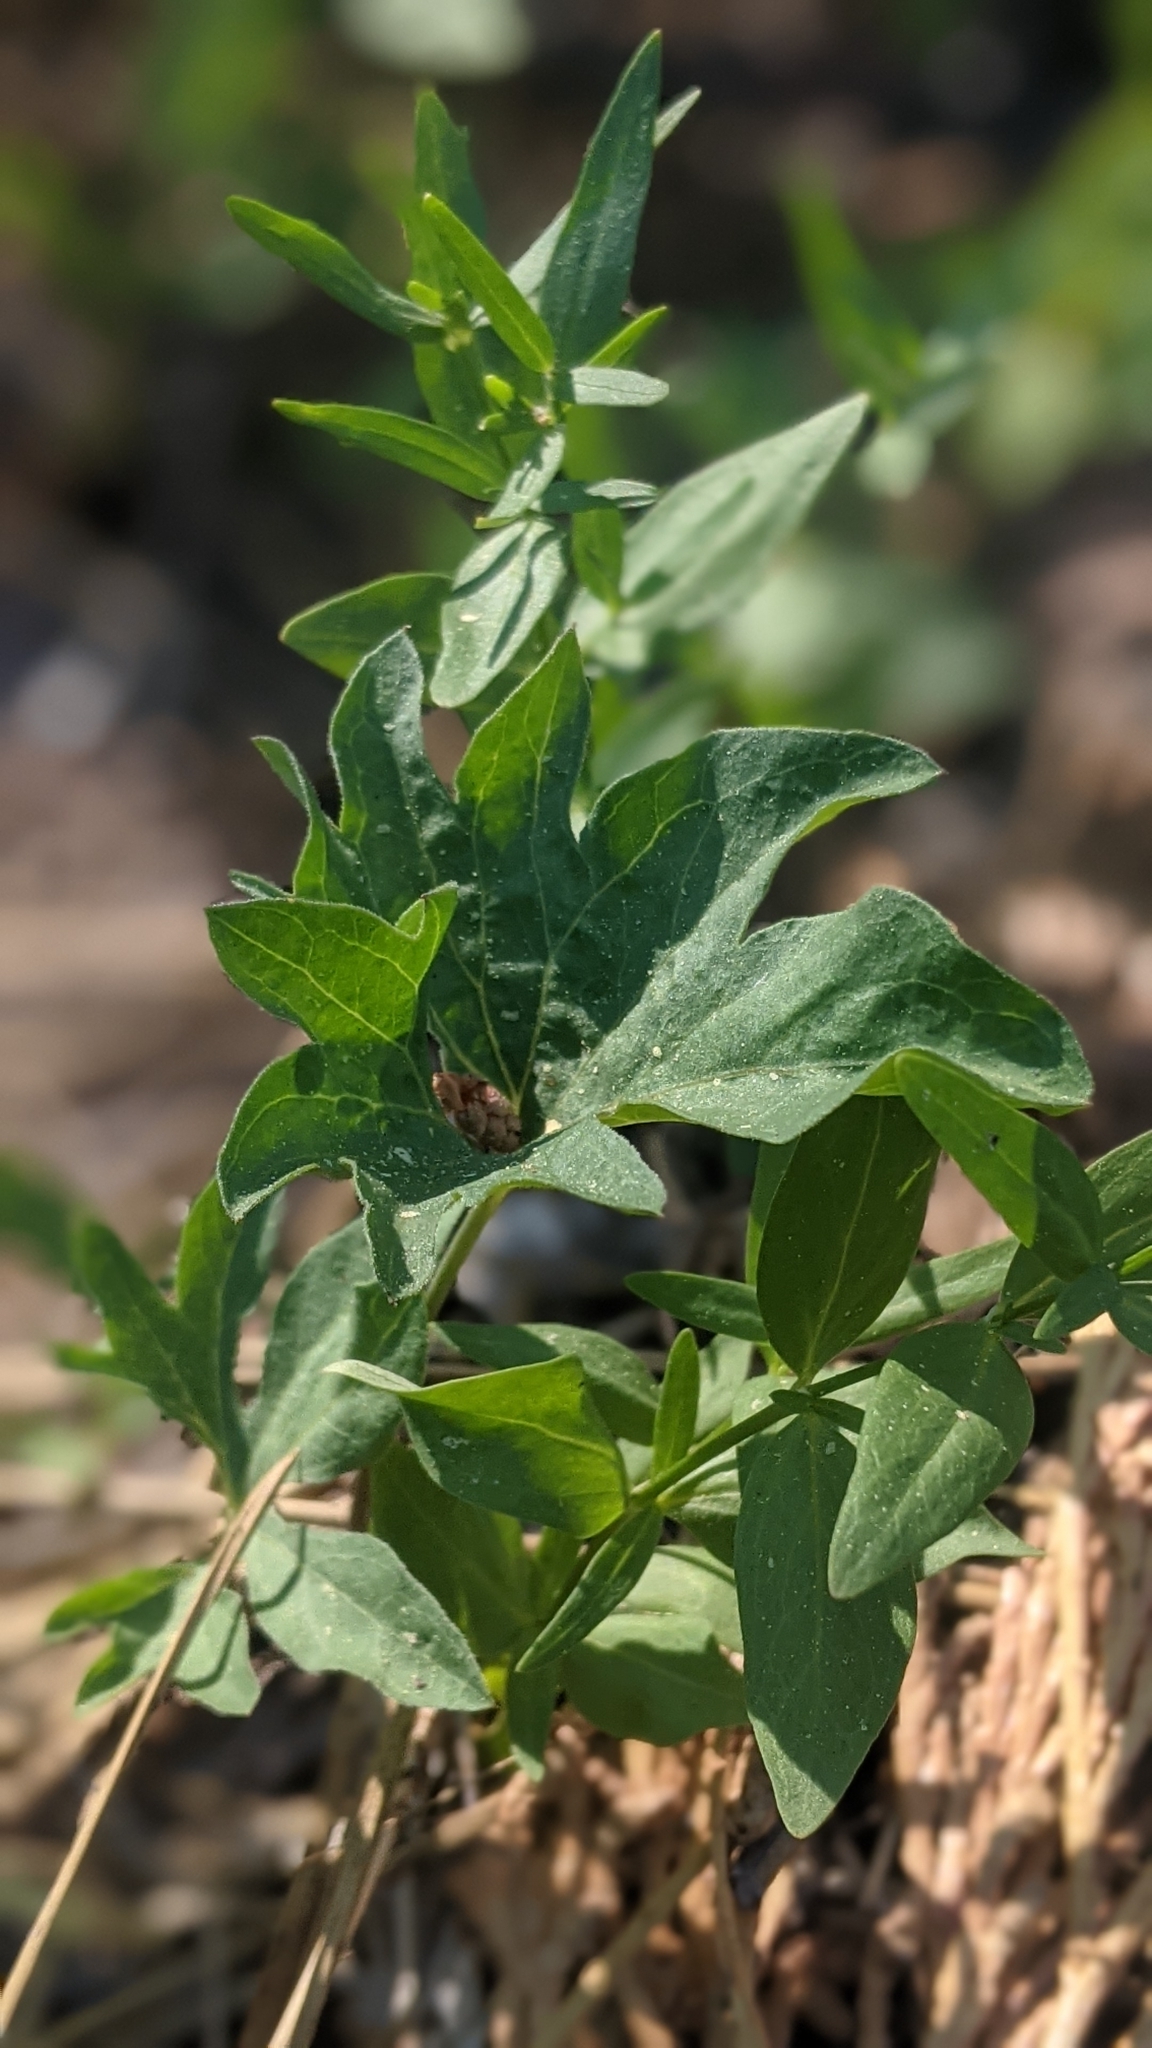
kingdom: Plantae
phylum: Tracheophyta
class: Magnoliopsida
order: Malpighiales
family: Violaceae
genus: Viola
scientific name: Viola lobata
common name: Pine violet
